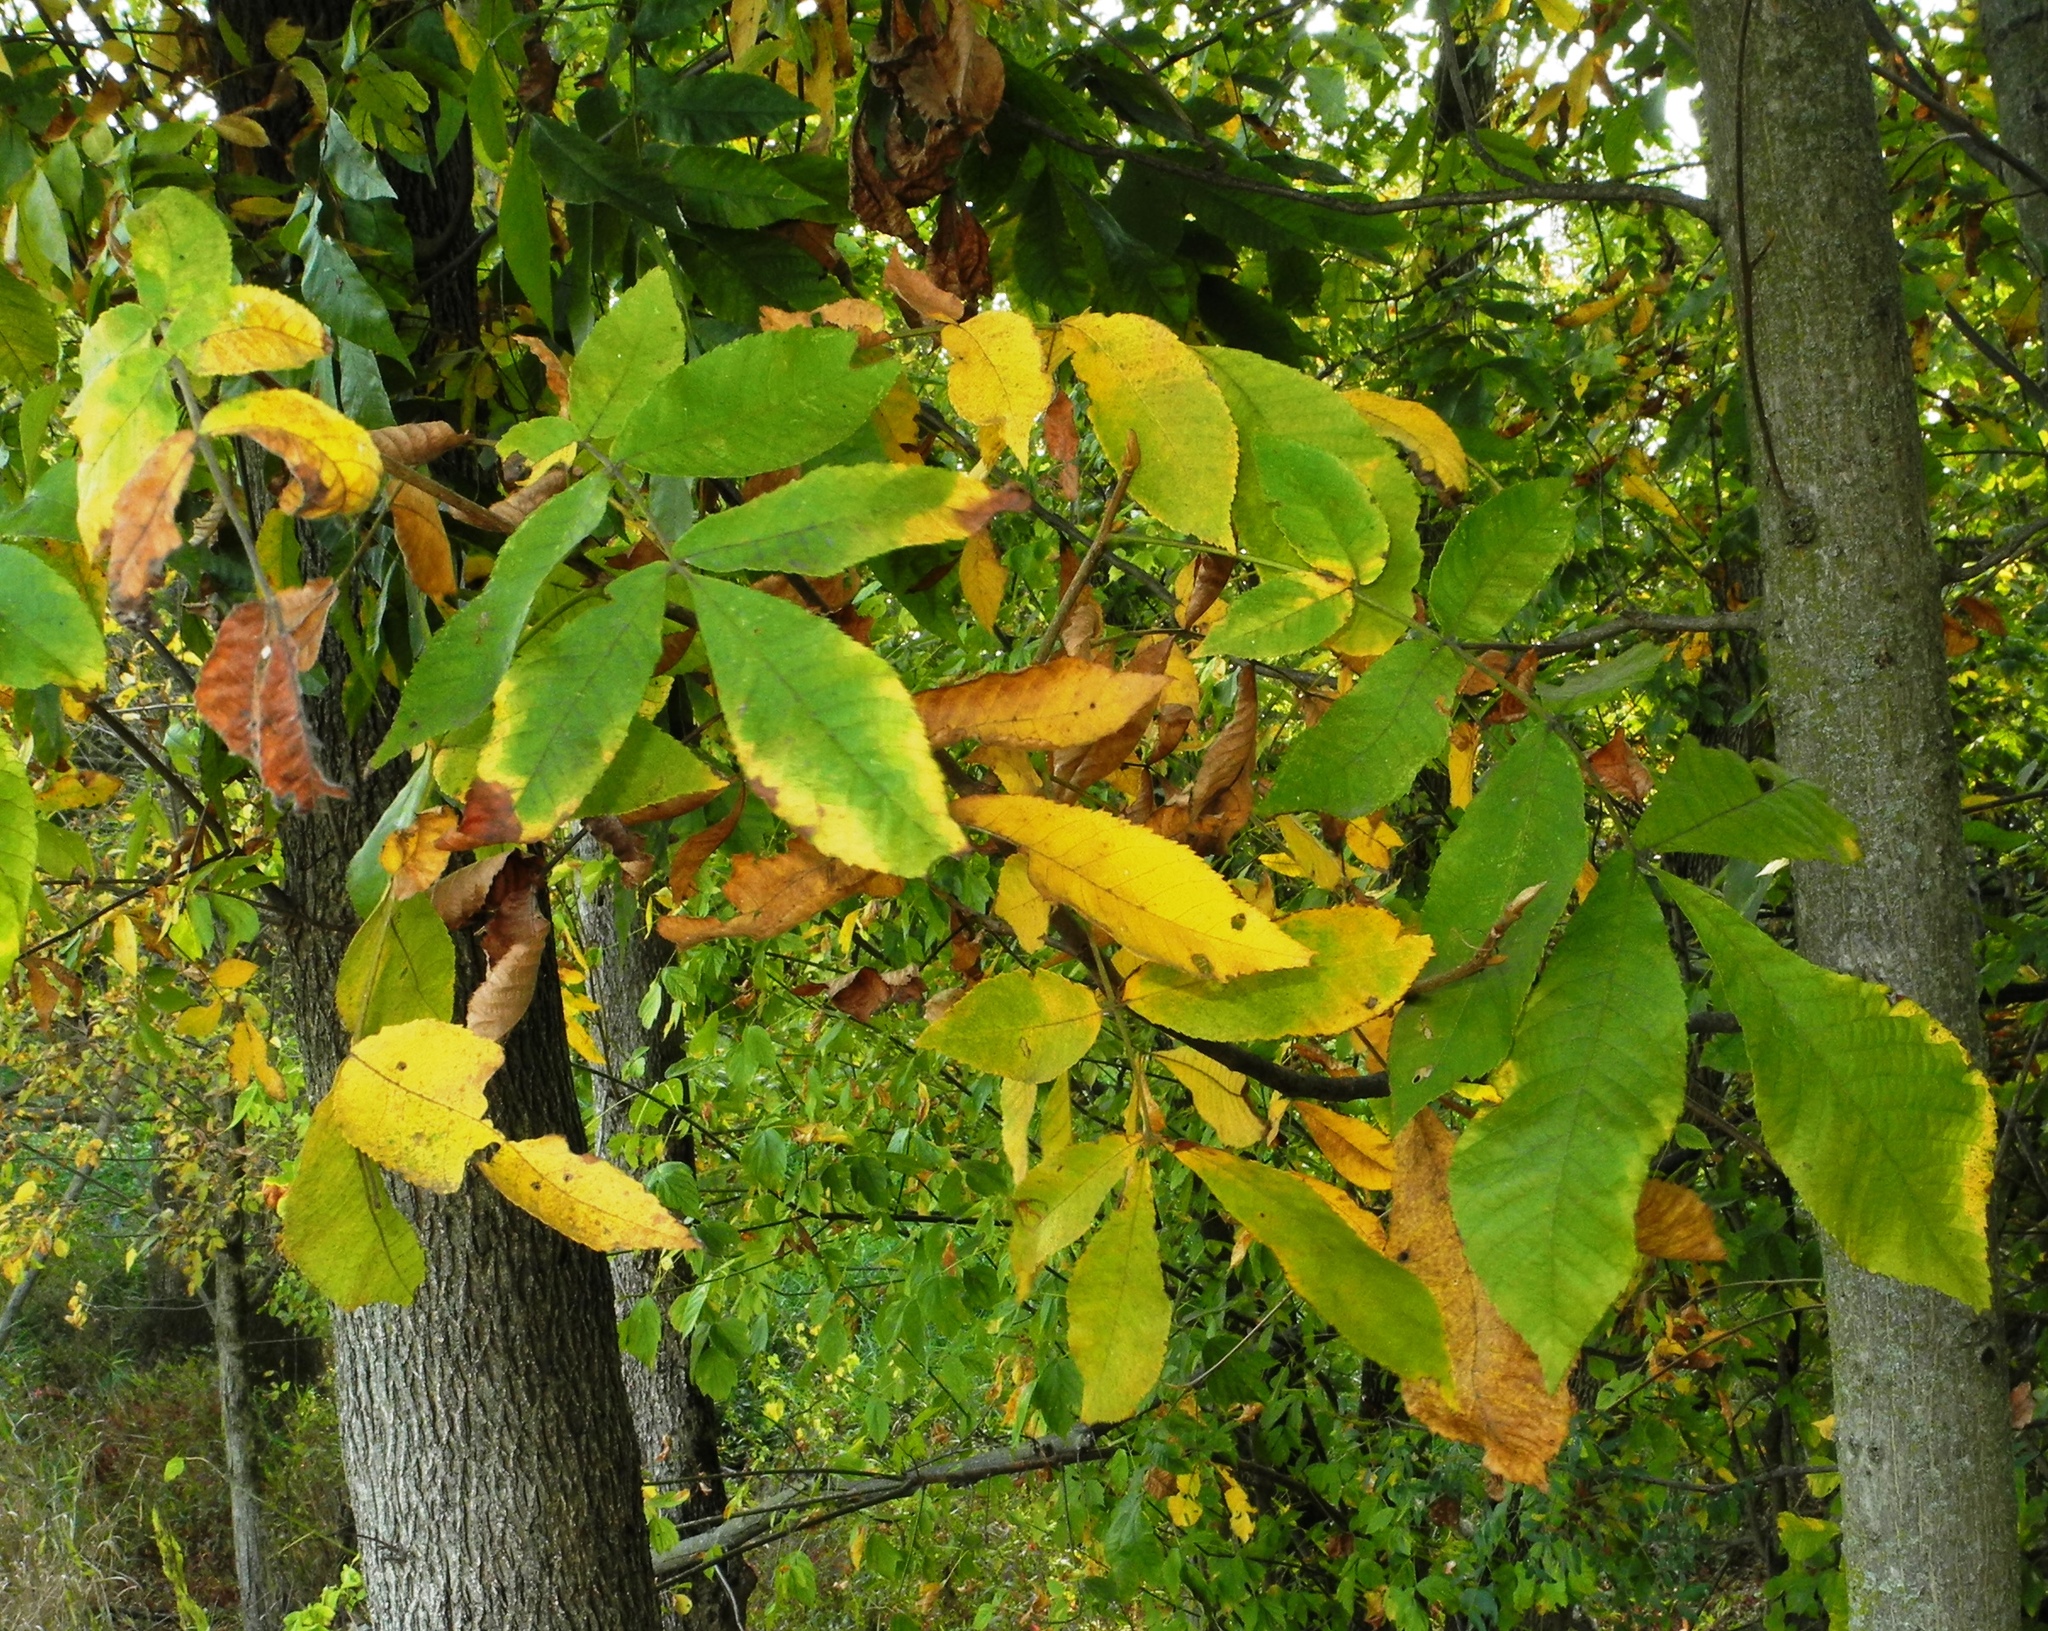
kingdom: Plantae
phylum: Tracheophyta
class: Magnoliopsida
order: Fagales
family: Juglandaceae
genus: Carya
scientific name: Carya cordiformis
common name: Bitternut hickory
